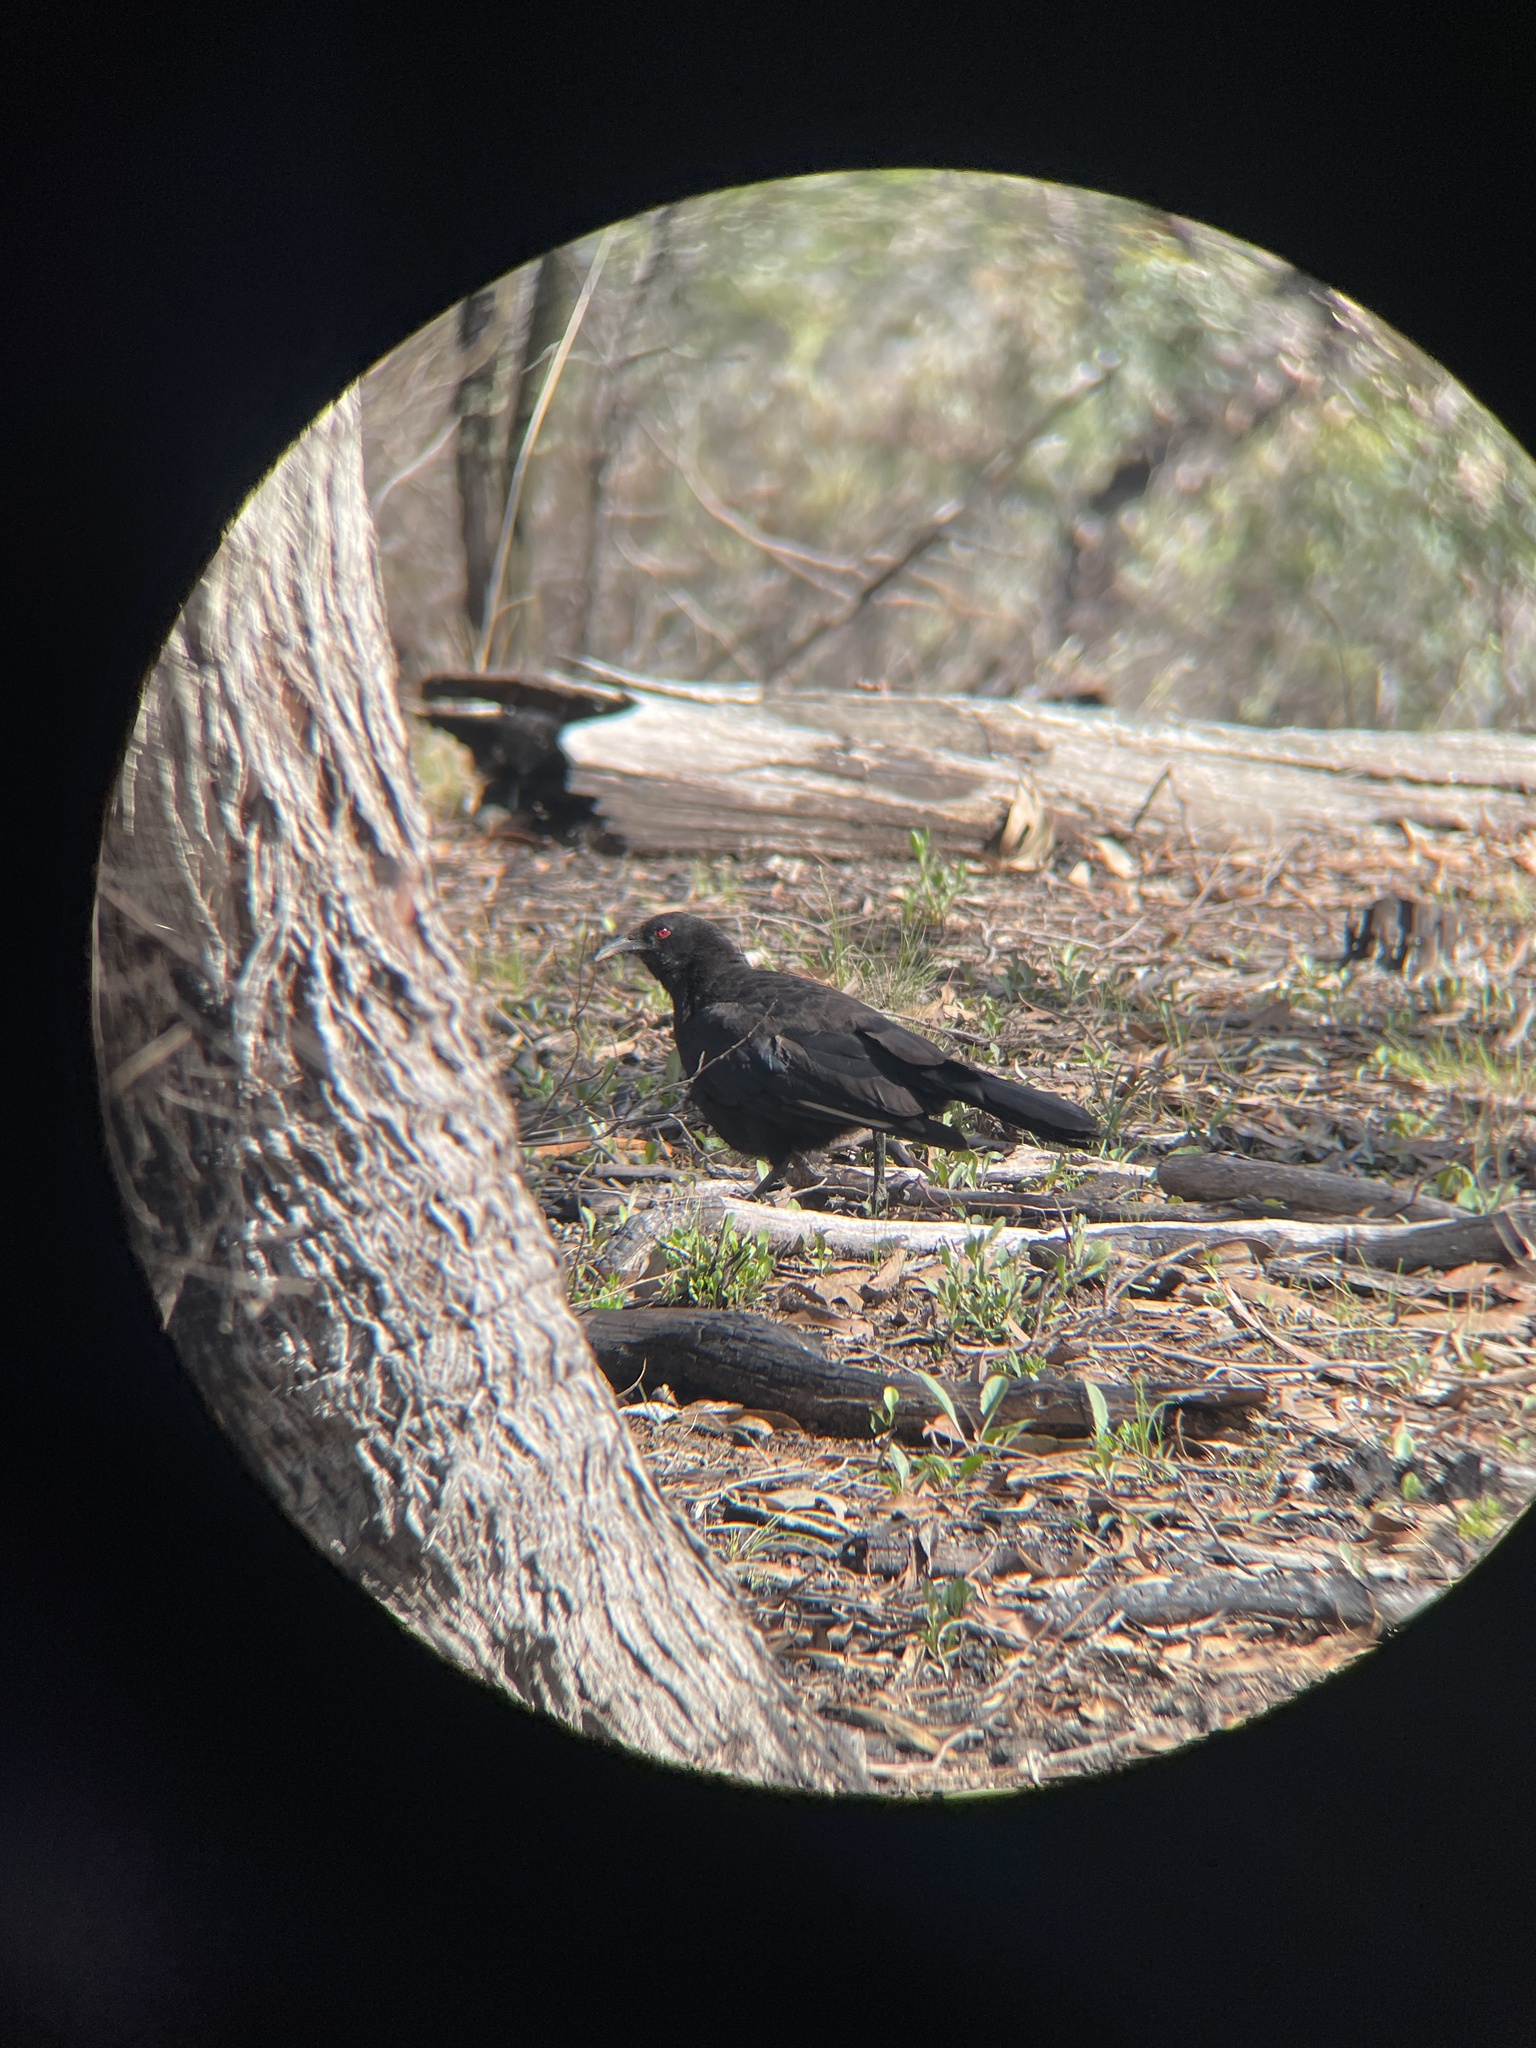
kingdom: Animalia
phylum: Chordata
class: Aves
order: Passeriformes
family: Corcoracidae
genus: Corcorax
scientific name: Corcorax melanoramphos
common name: White-winged chough
